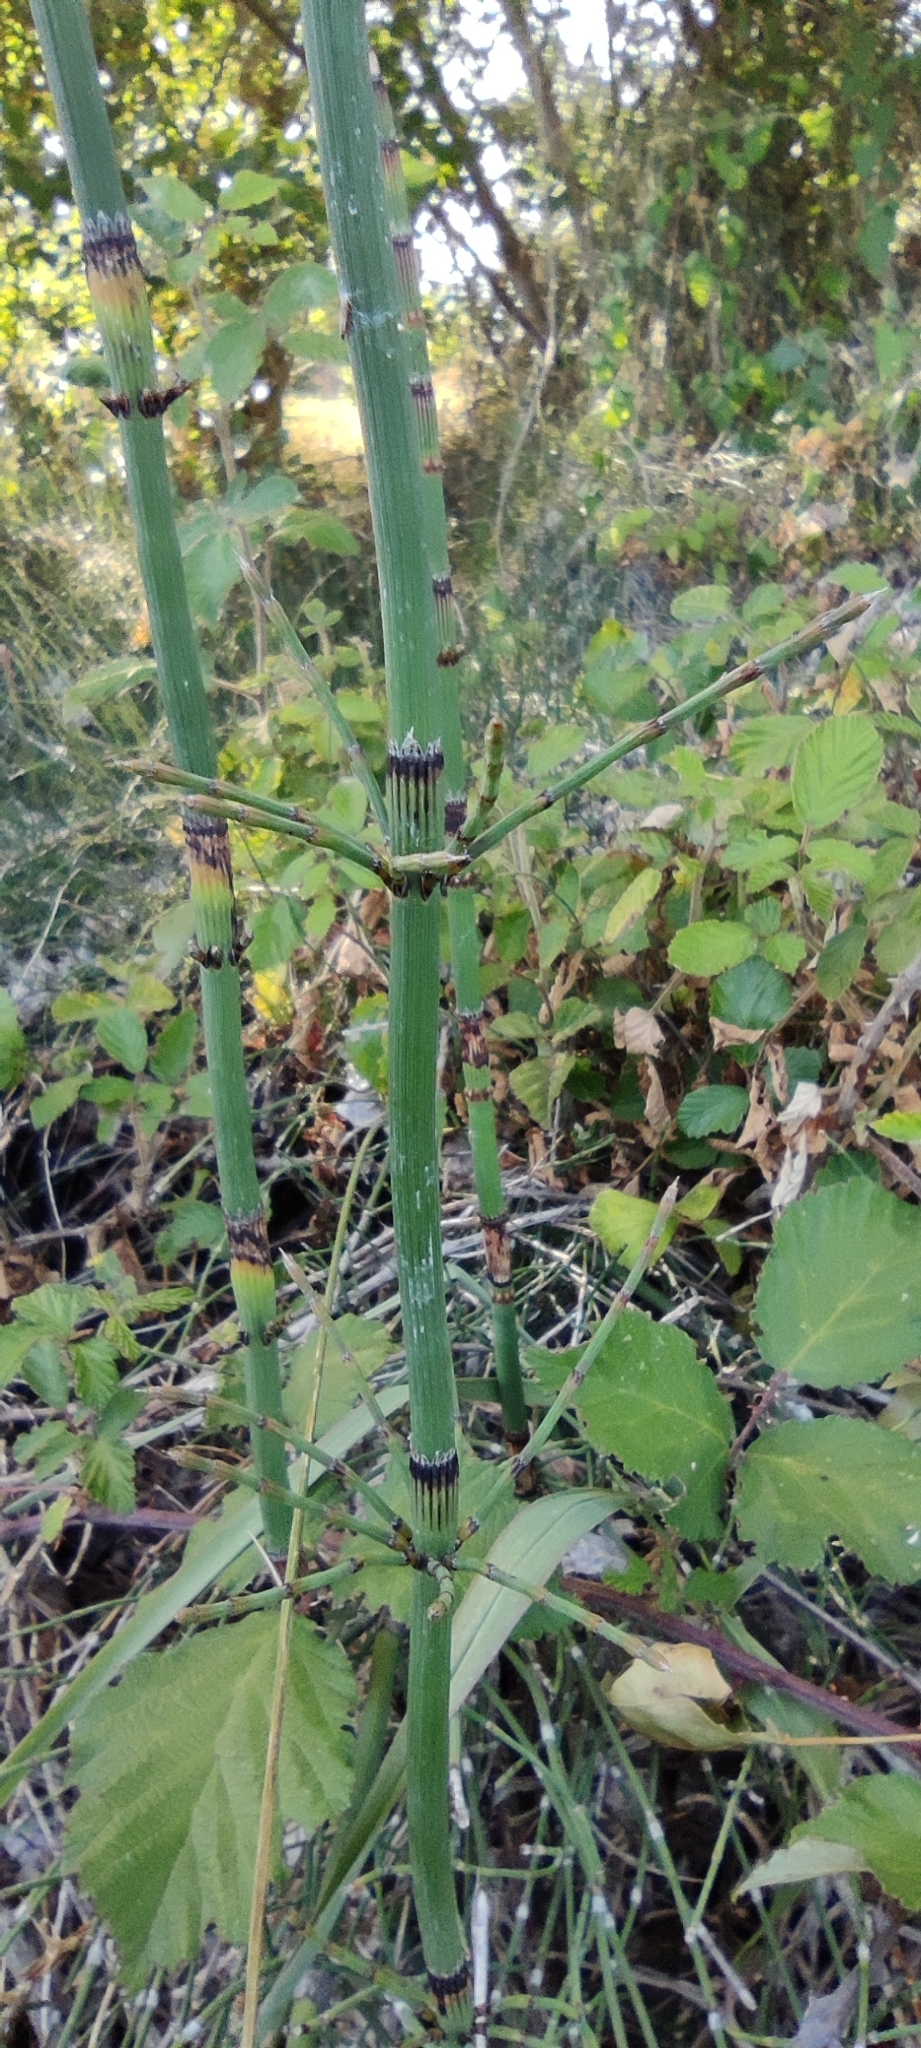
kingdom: Plantae
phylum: Tracheophyta
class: Polypodiopsida
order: Equisetales
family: Equisetaceae
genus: Equisetum
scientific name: Equisetum ramosissimum
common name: Branched horsetail
